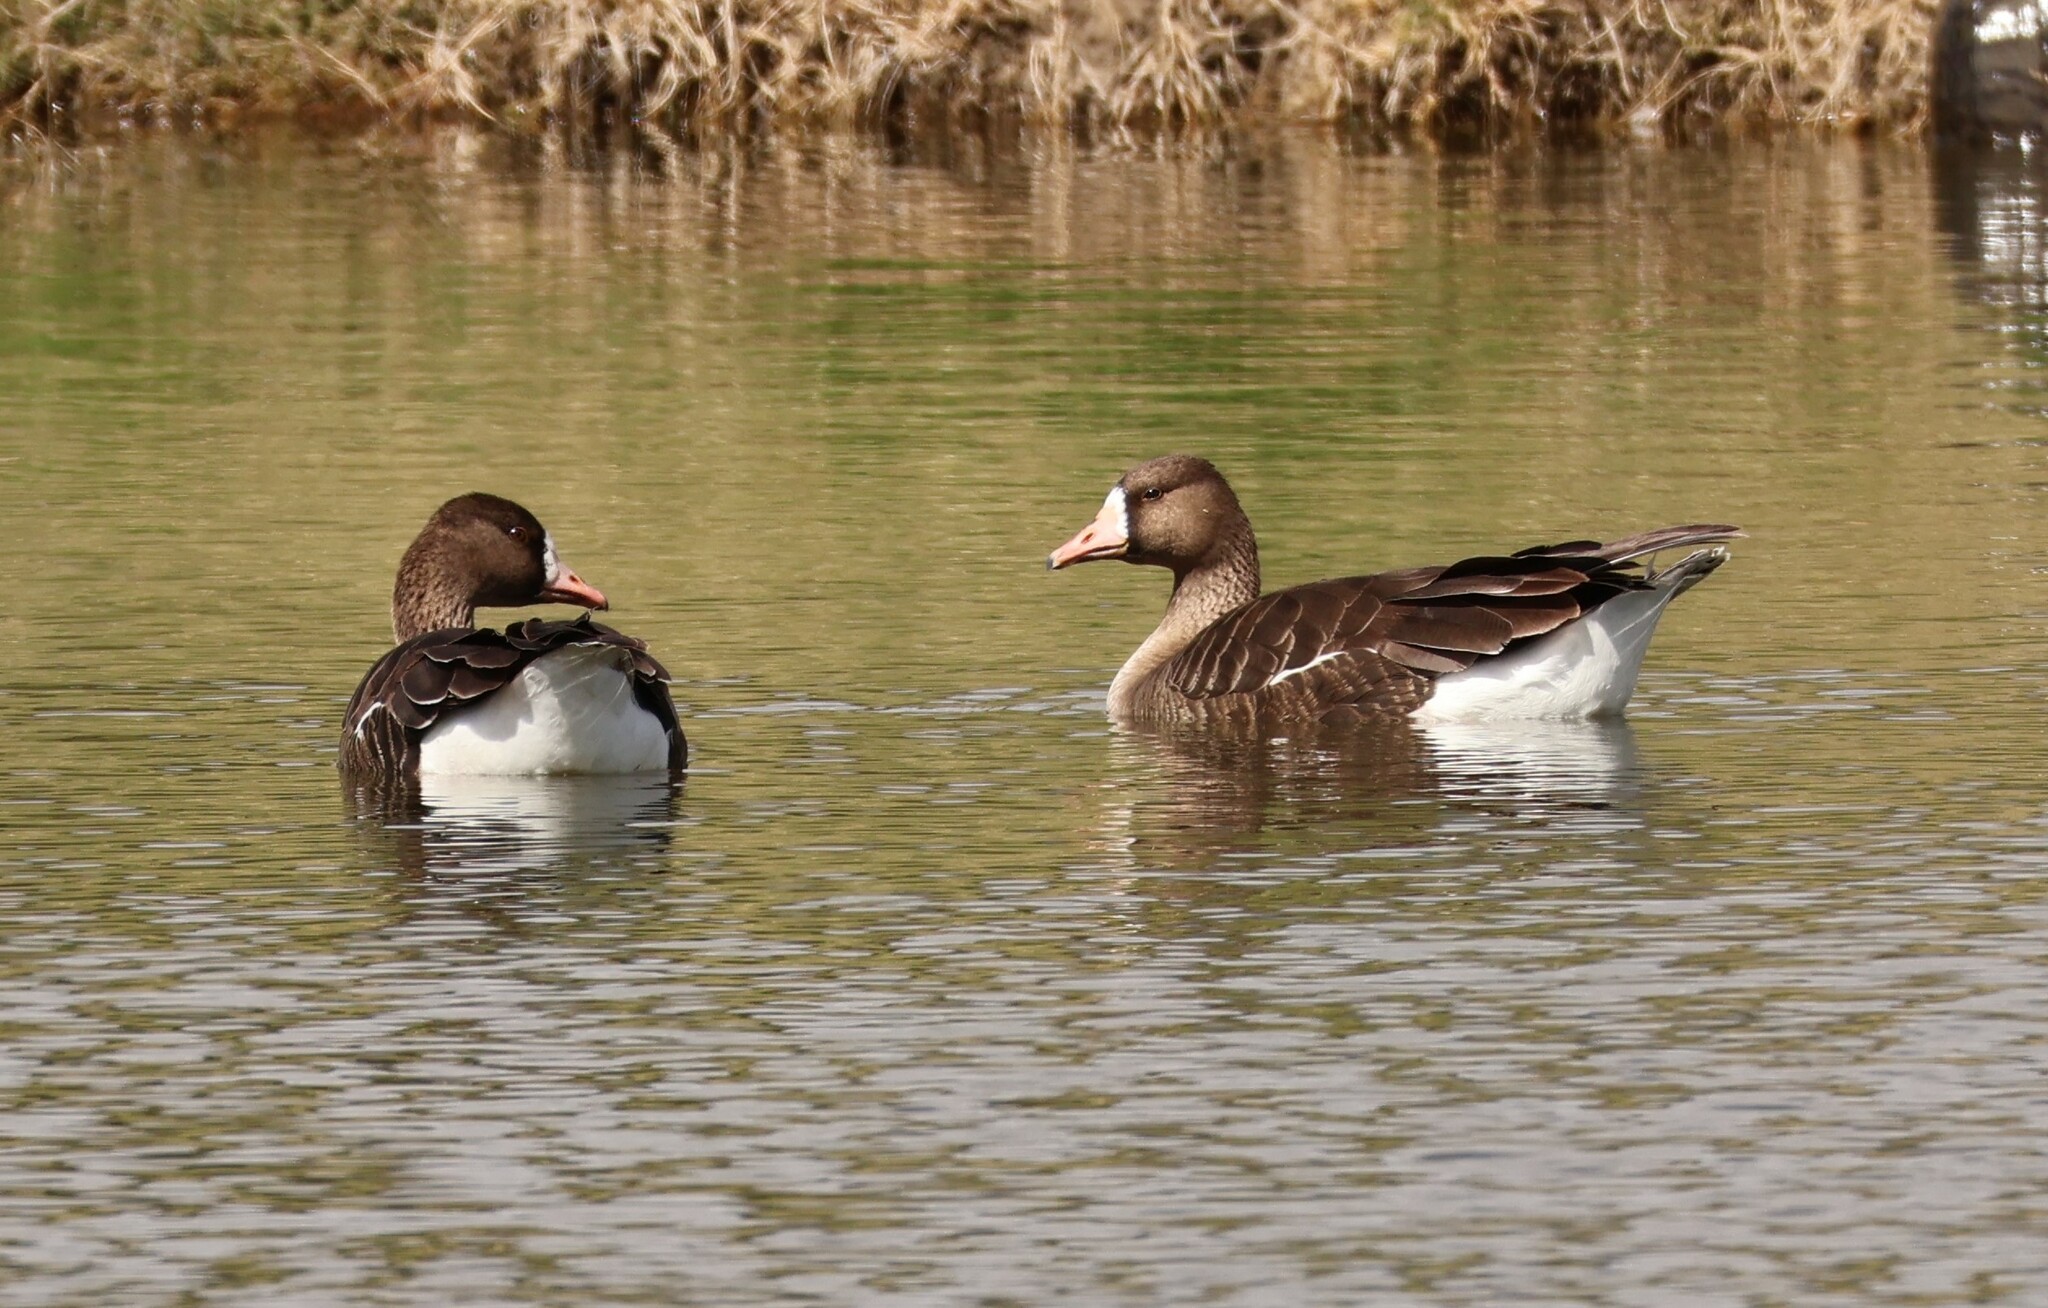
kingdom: Animalia
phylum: Chordata
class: Aves
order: Anseriformes
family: Anatidae
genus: Anser
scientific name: Anser albifrons
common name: Greater white-fronted goose
